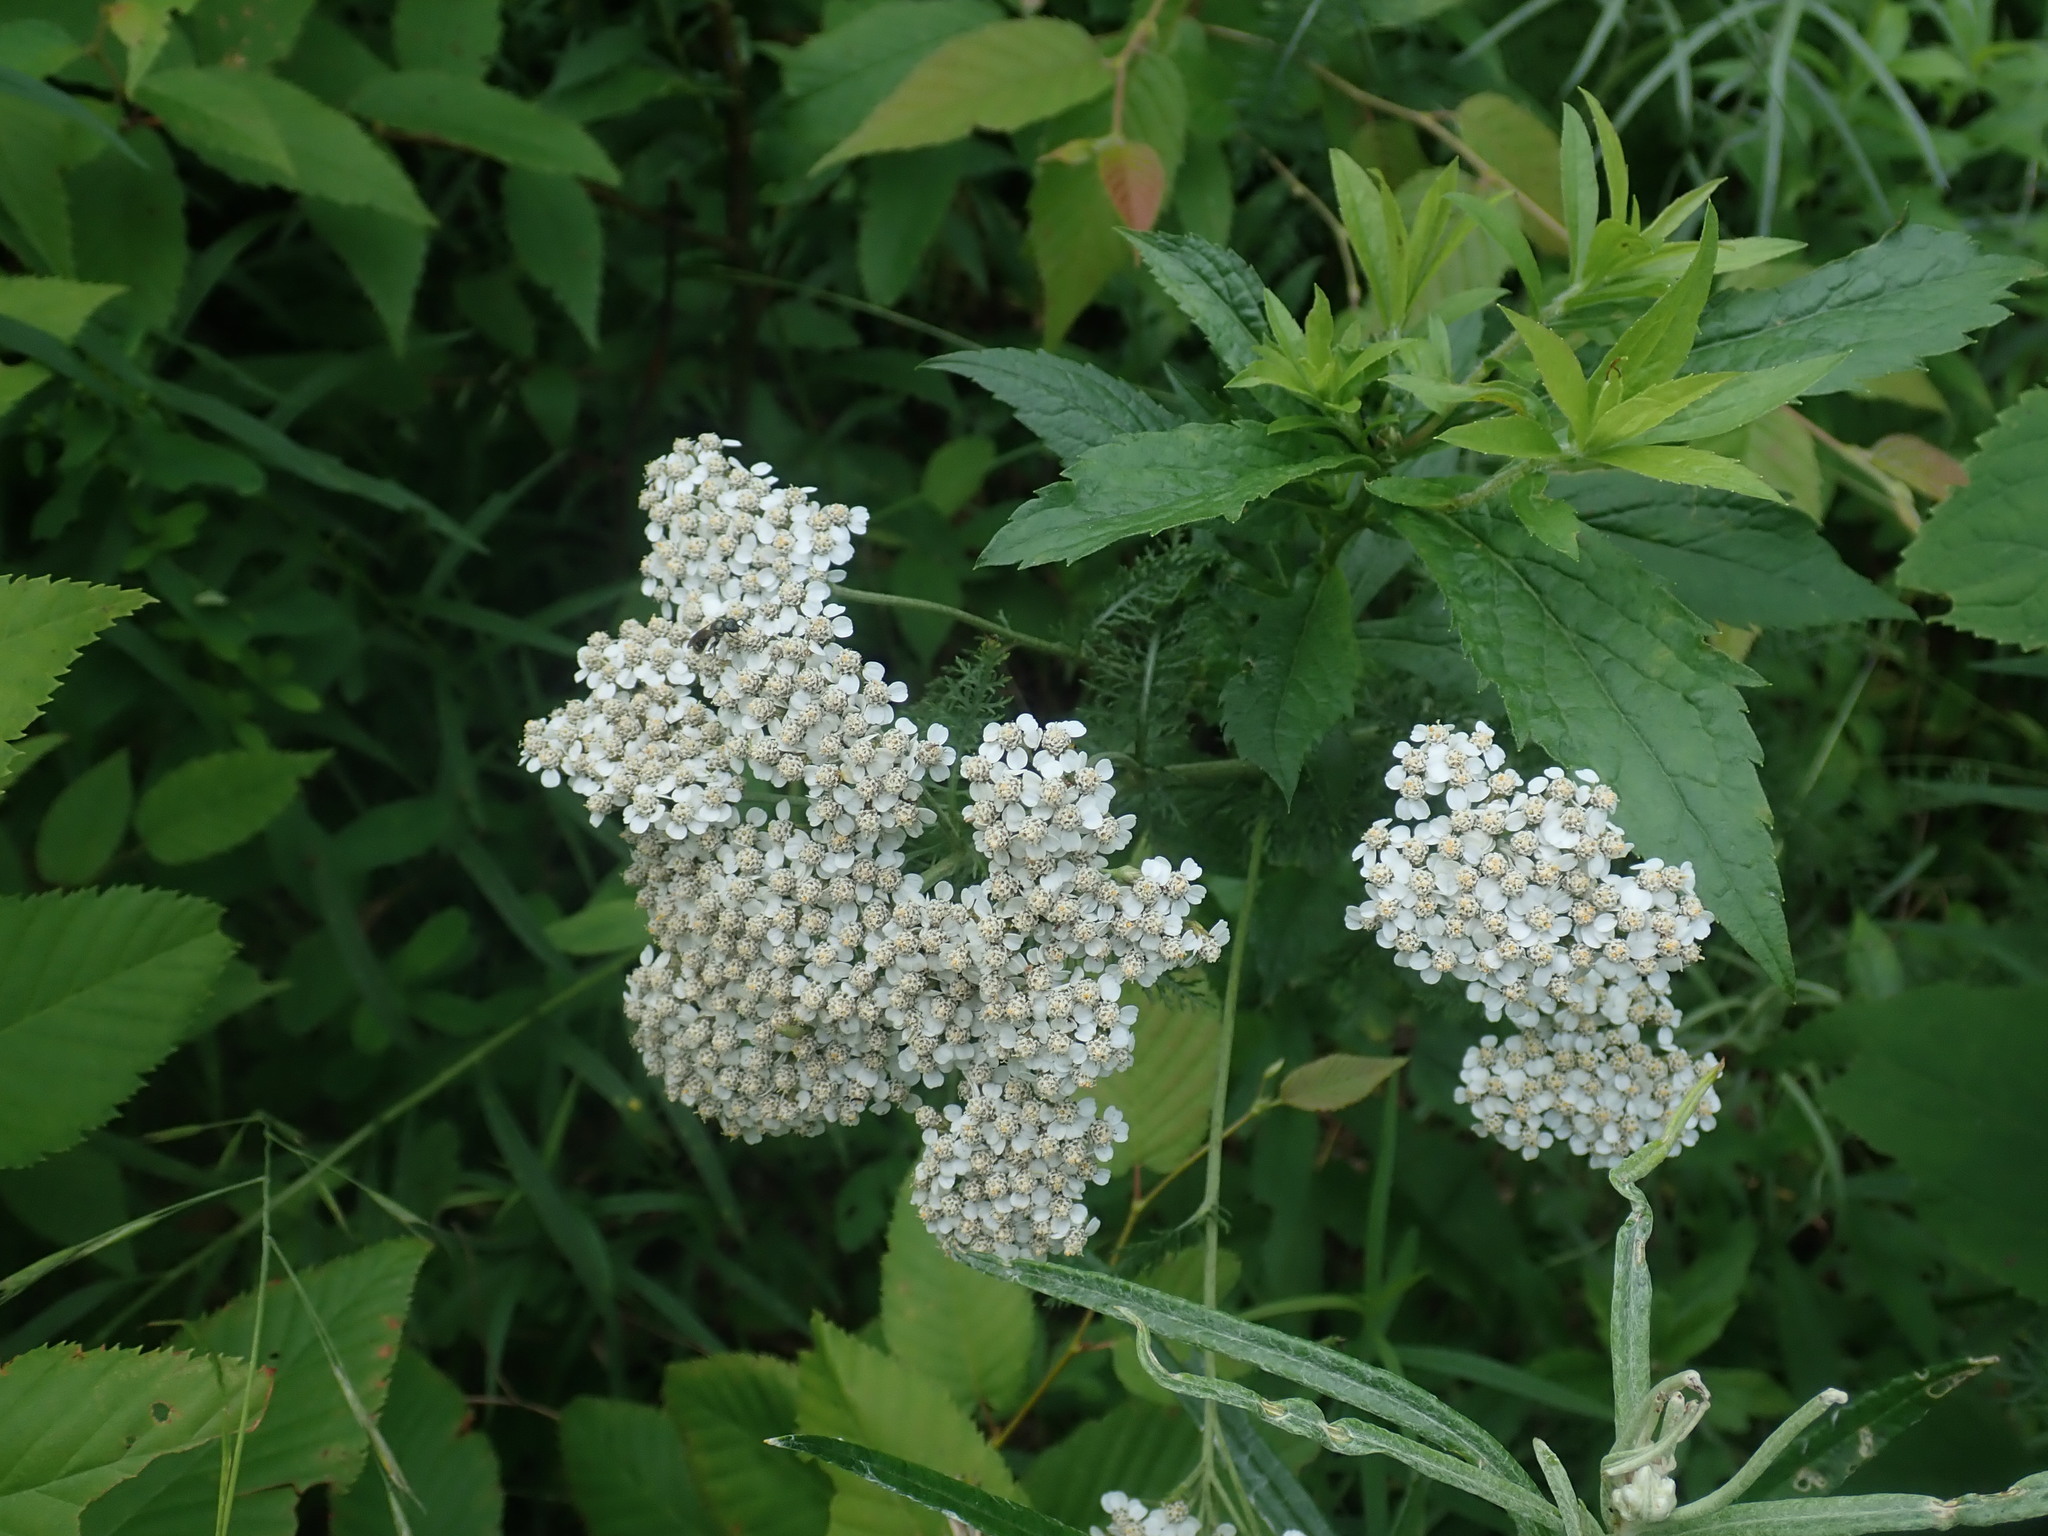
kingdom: Plantae
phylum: Tracheophyta
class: Magnoliopsida
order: Asterales
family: Asteraceae
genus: Achillea
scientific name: Achillea millefolium
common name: Yarrow
